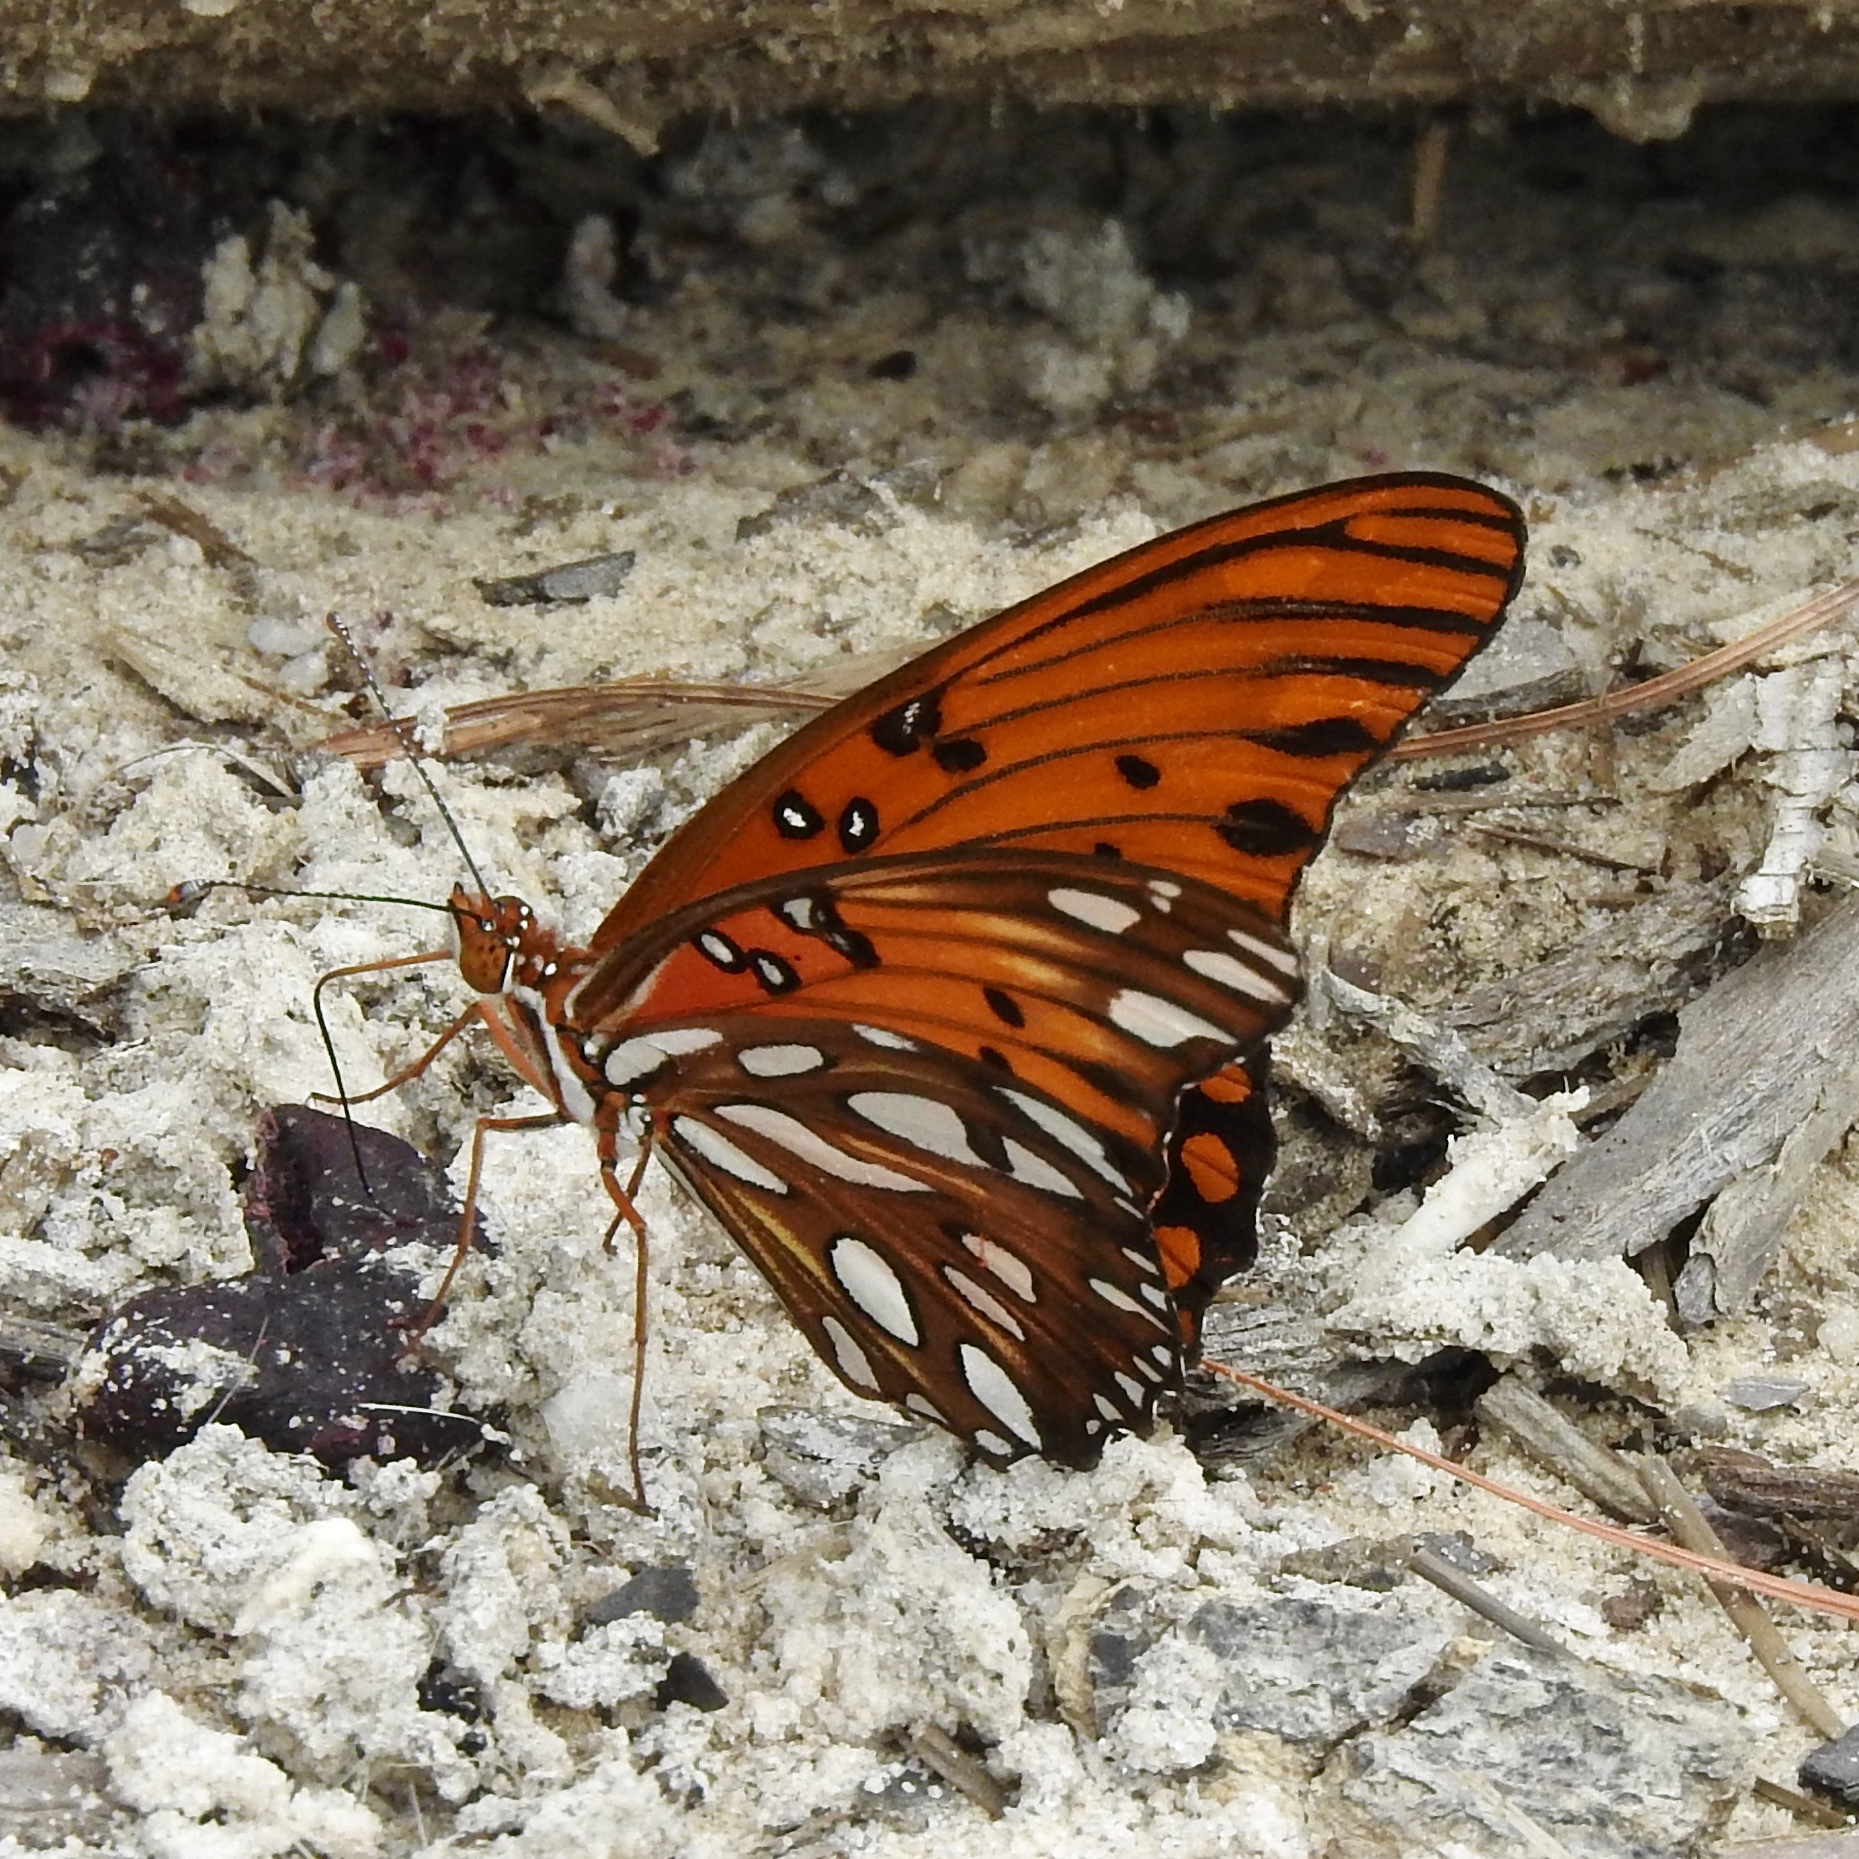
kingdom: Animalia
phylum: Arthropoda
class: Insecta
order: Lepidoptera
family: Nymphalidae
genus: Dione
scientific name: Dione vanillae
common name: Gulf fritillary
